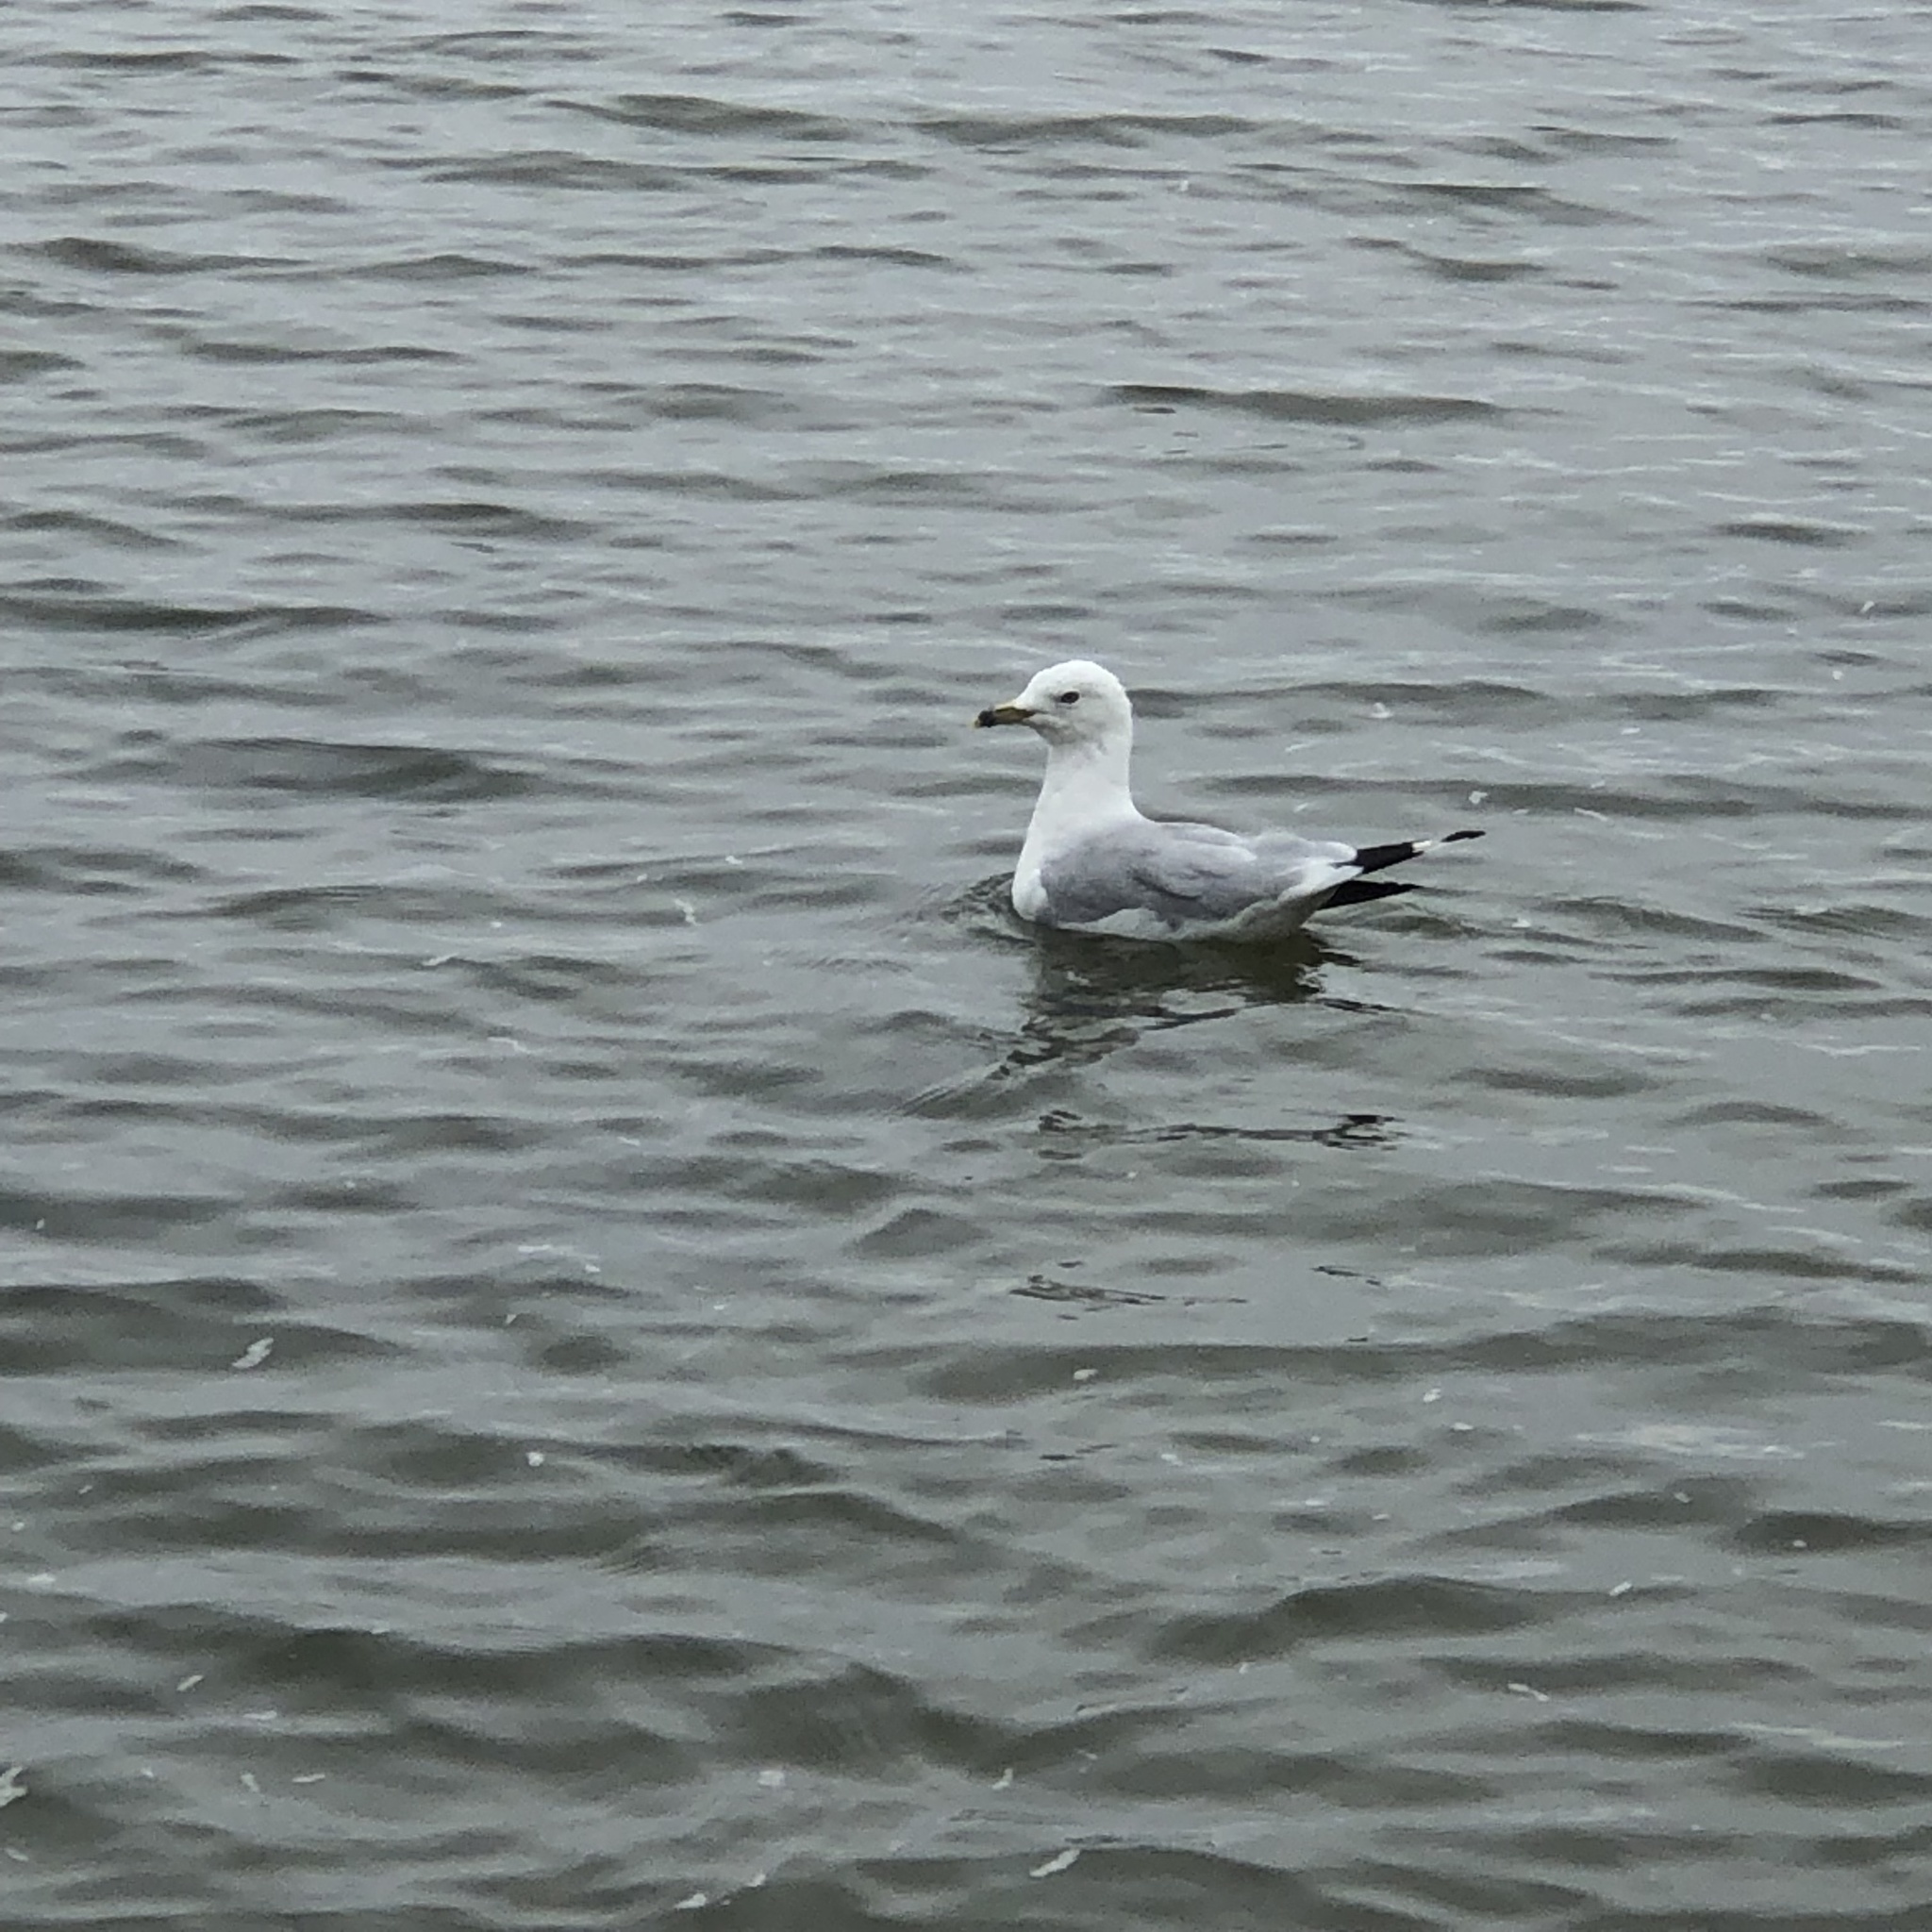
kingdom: Animalia
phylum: Chordata
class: Aves
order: Charadriiformes
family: Laridae
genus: Larus
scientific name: Larus delawarensis
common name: Ring-billed gull
